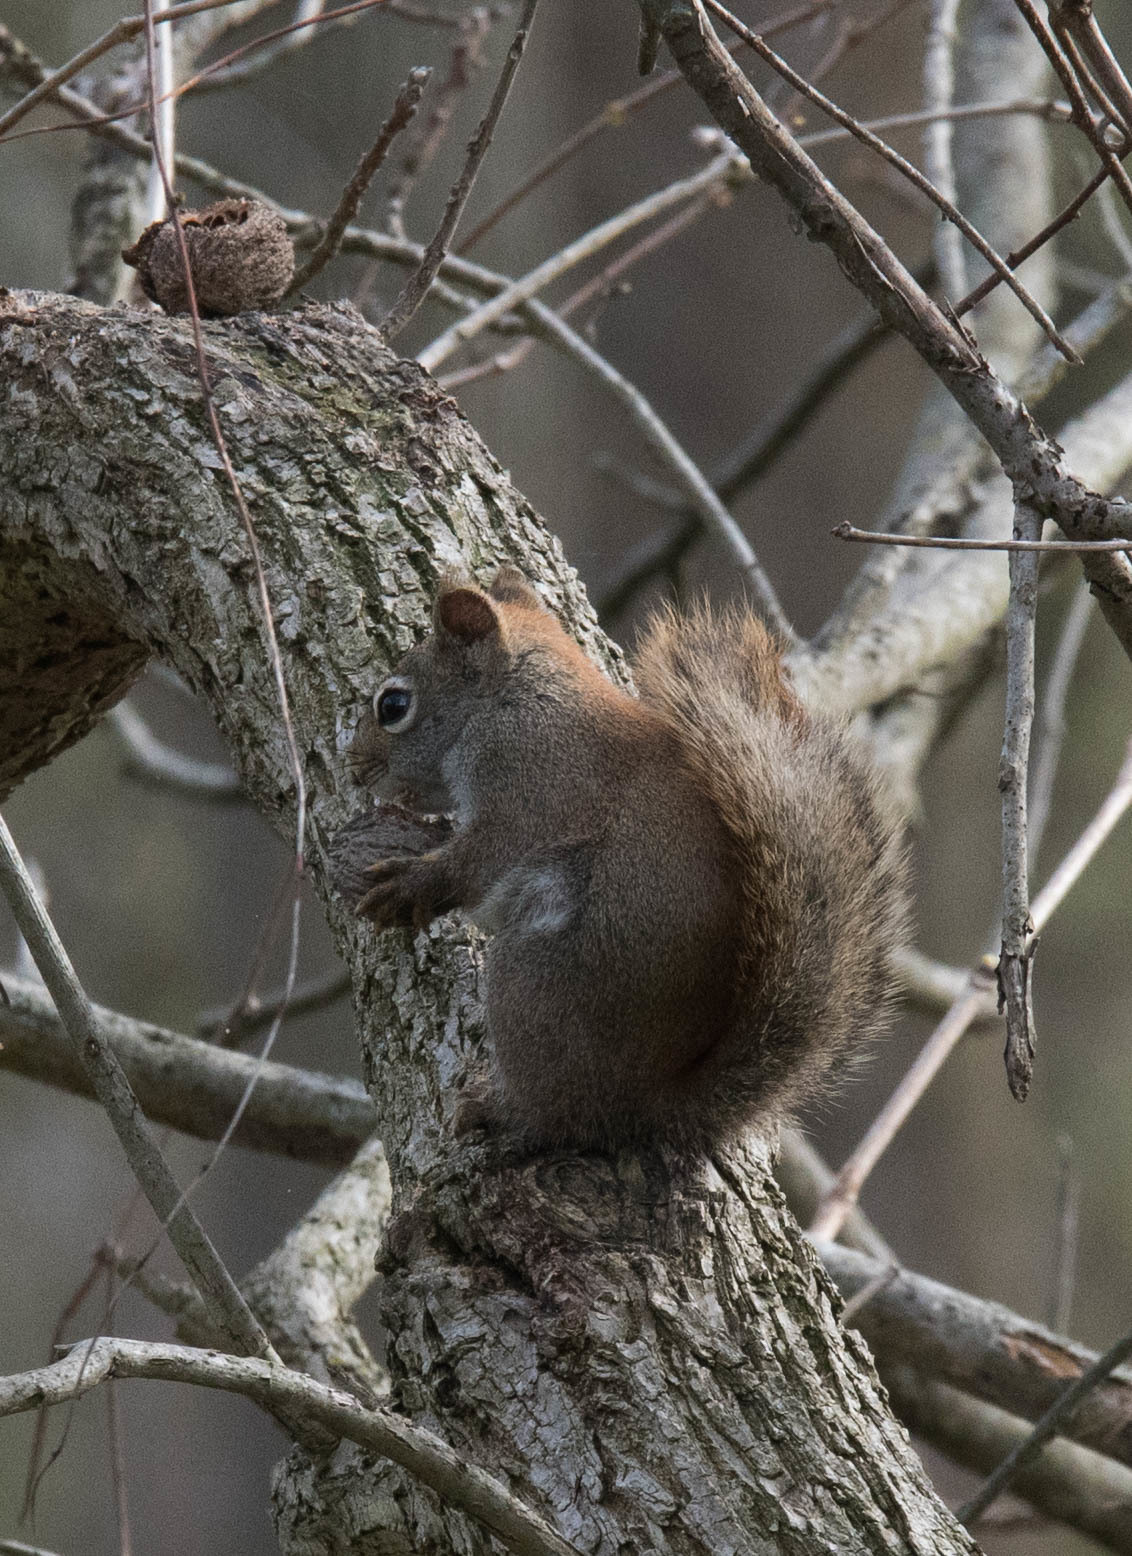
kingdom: Animalia
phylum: Chordata
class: Mammalia
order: Rodentia
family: Sciuridae
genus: Tamiasciurus
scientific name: Tamiasciurus hudsonicus
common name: Red squirrel
